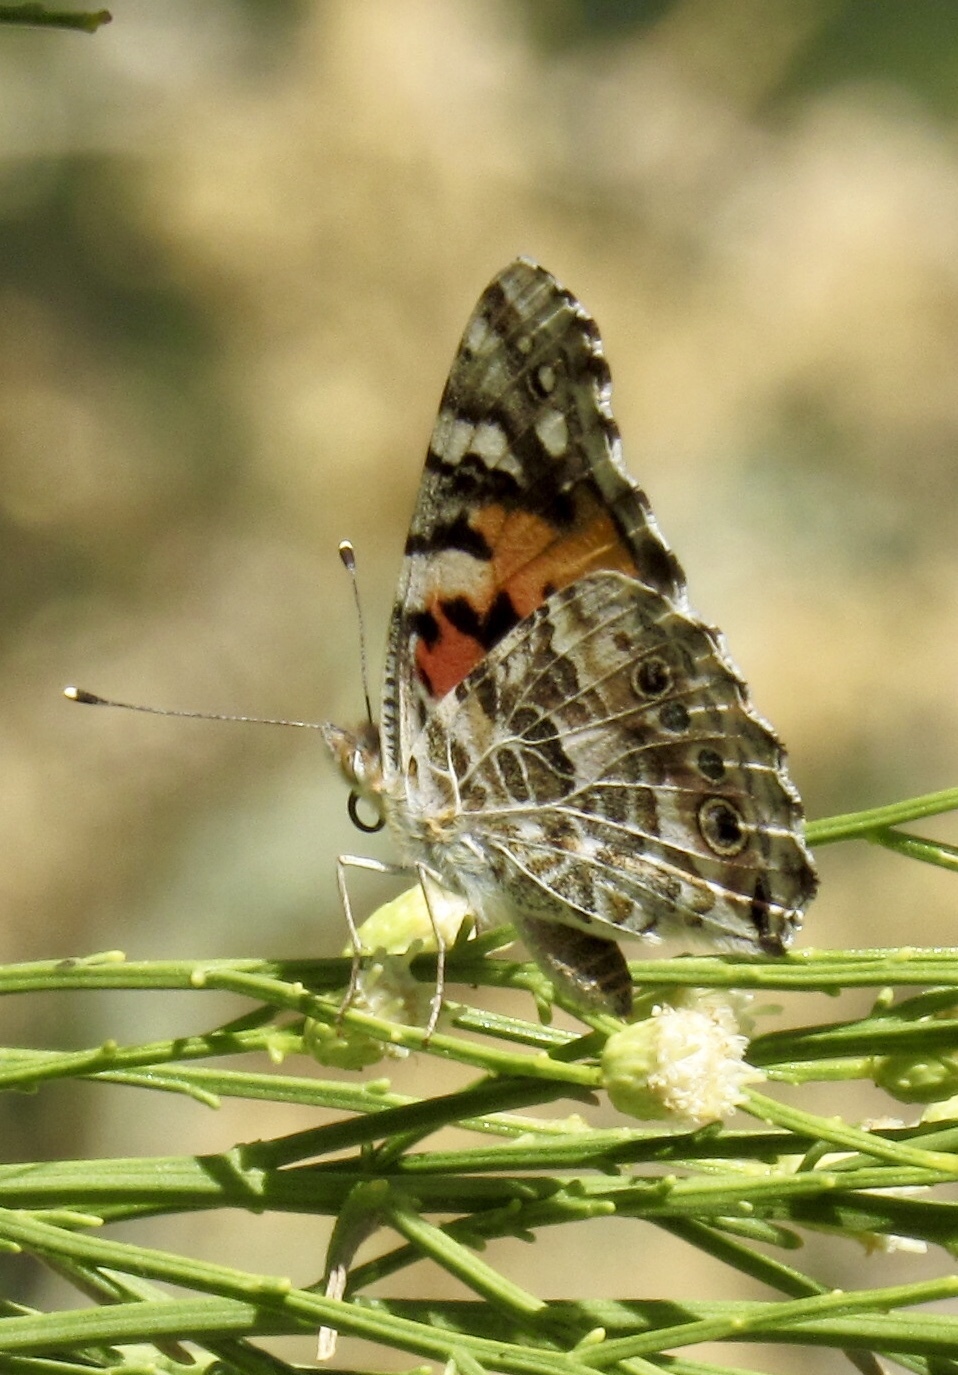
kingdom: Animalia
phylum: Arthropoda
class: Insecta
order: Lepidoptera
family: Nymphalidae
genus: Vanessa
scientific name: Vanessa cardui
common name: Painted lady
